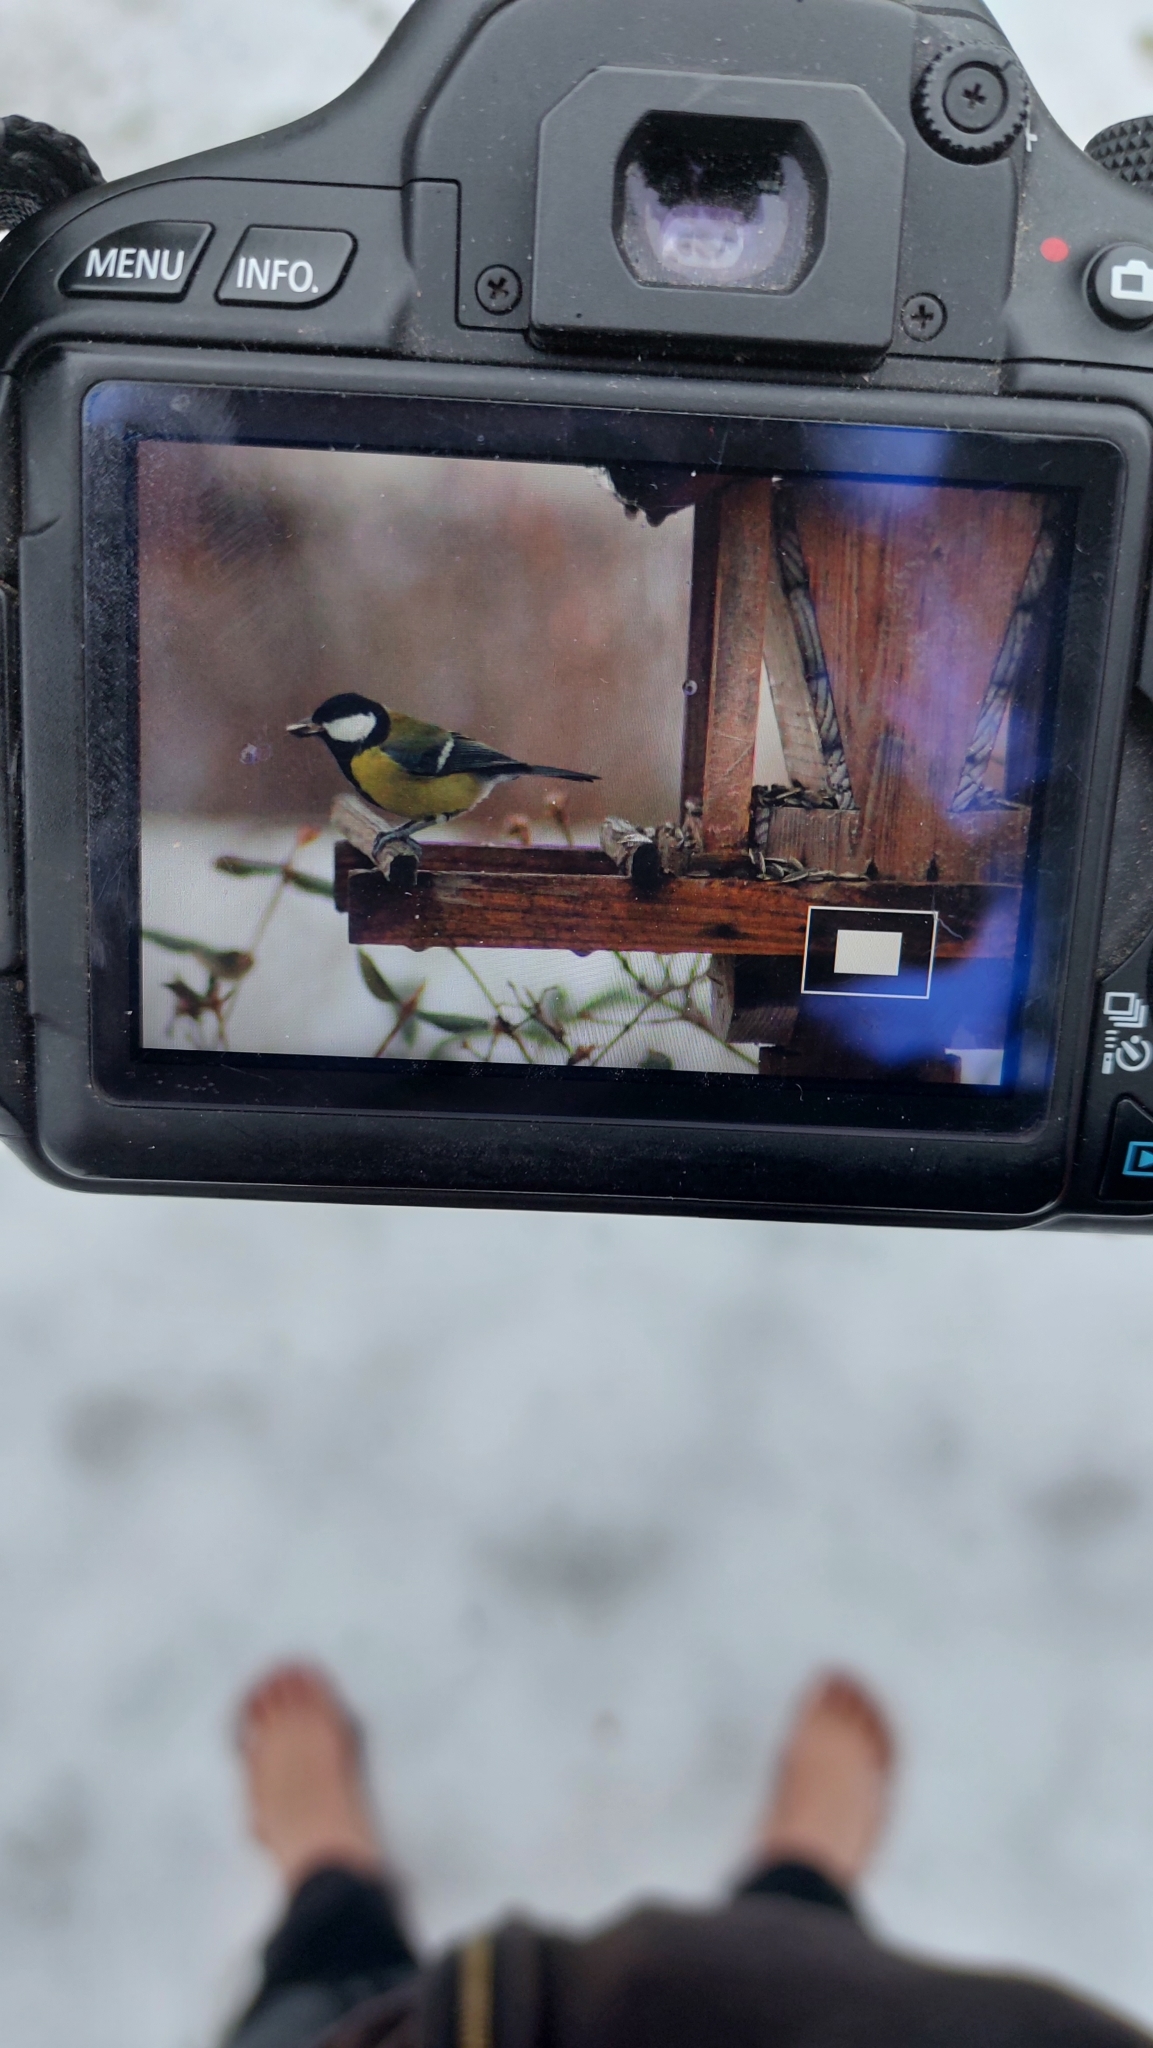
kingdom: Animalia
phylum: Chordata
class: Aves
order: Passeriformes
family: Paridae
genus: Parus
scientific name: Parus major
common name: Great tit
